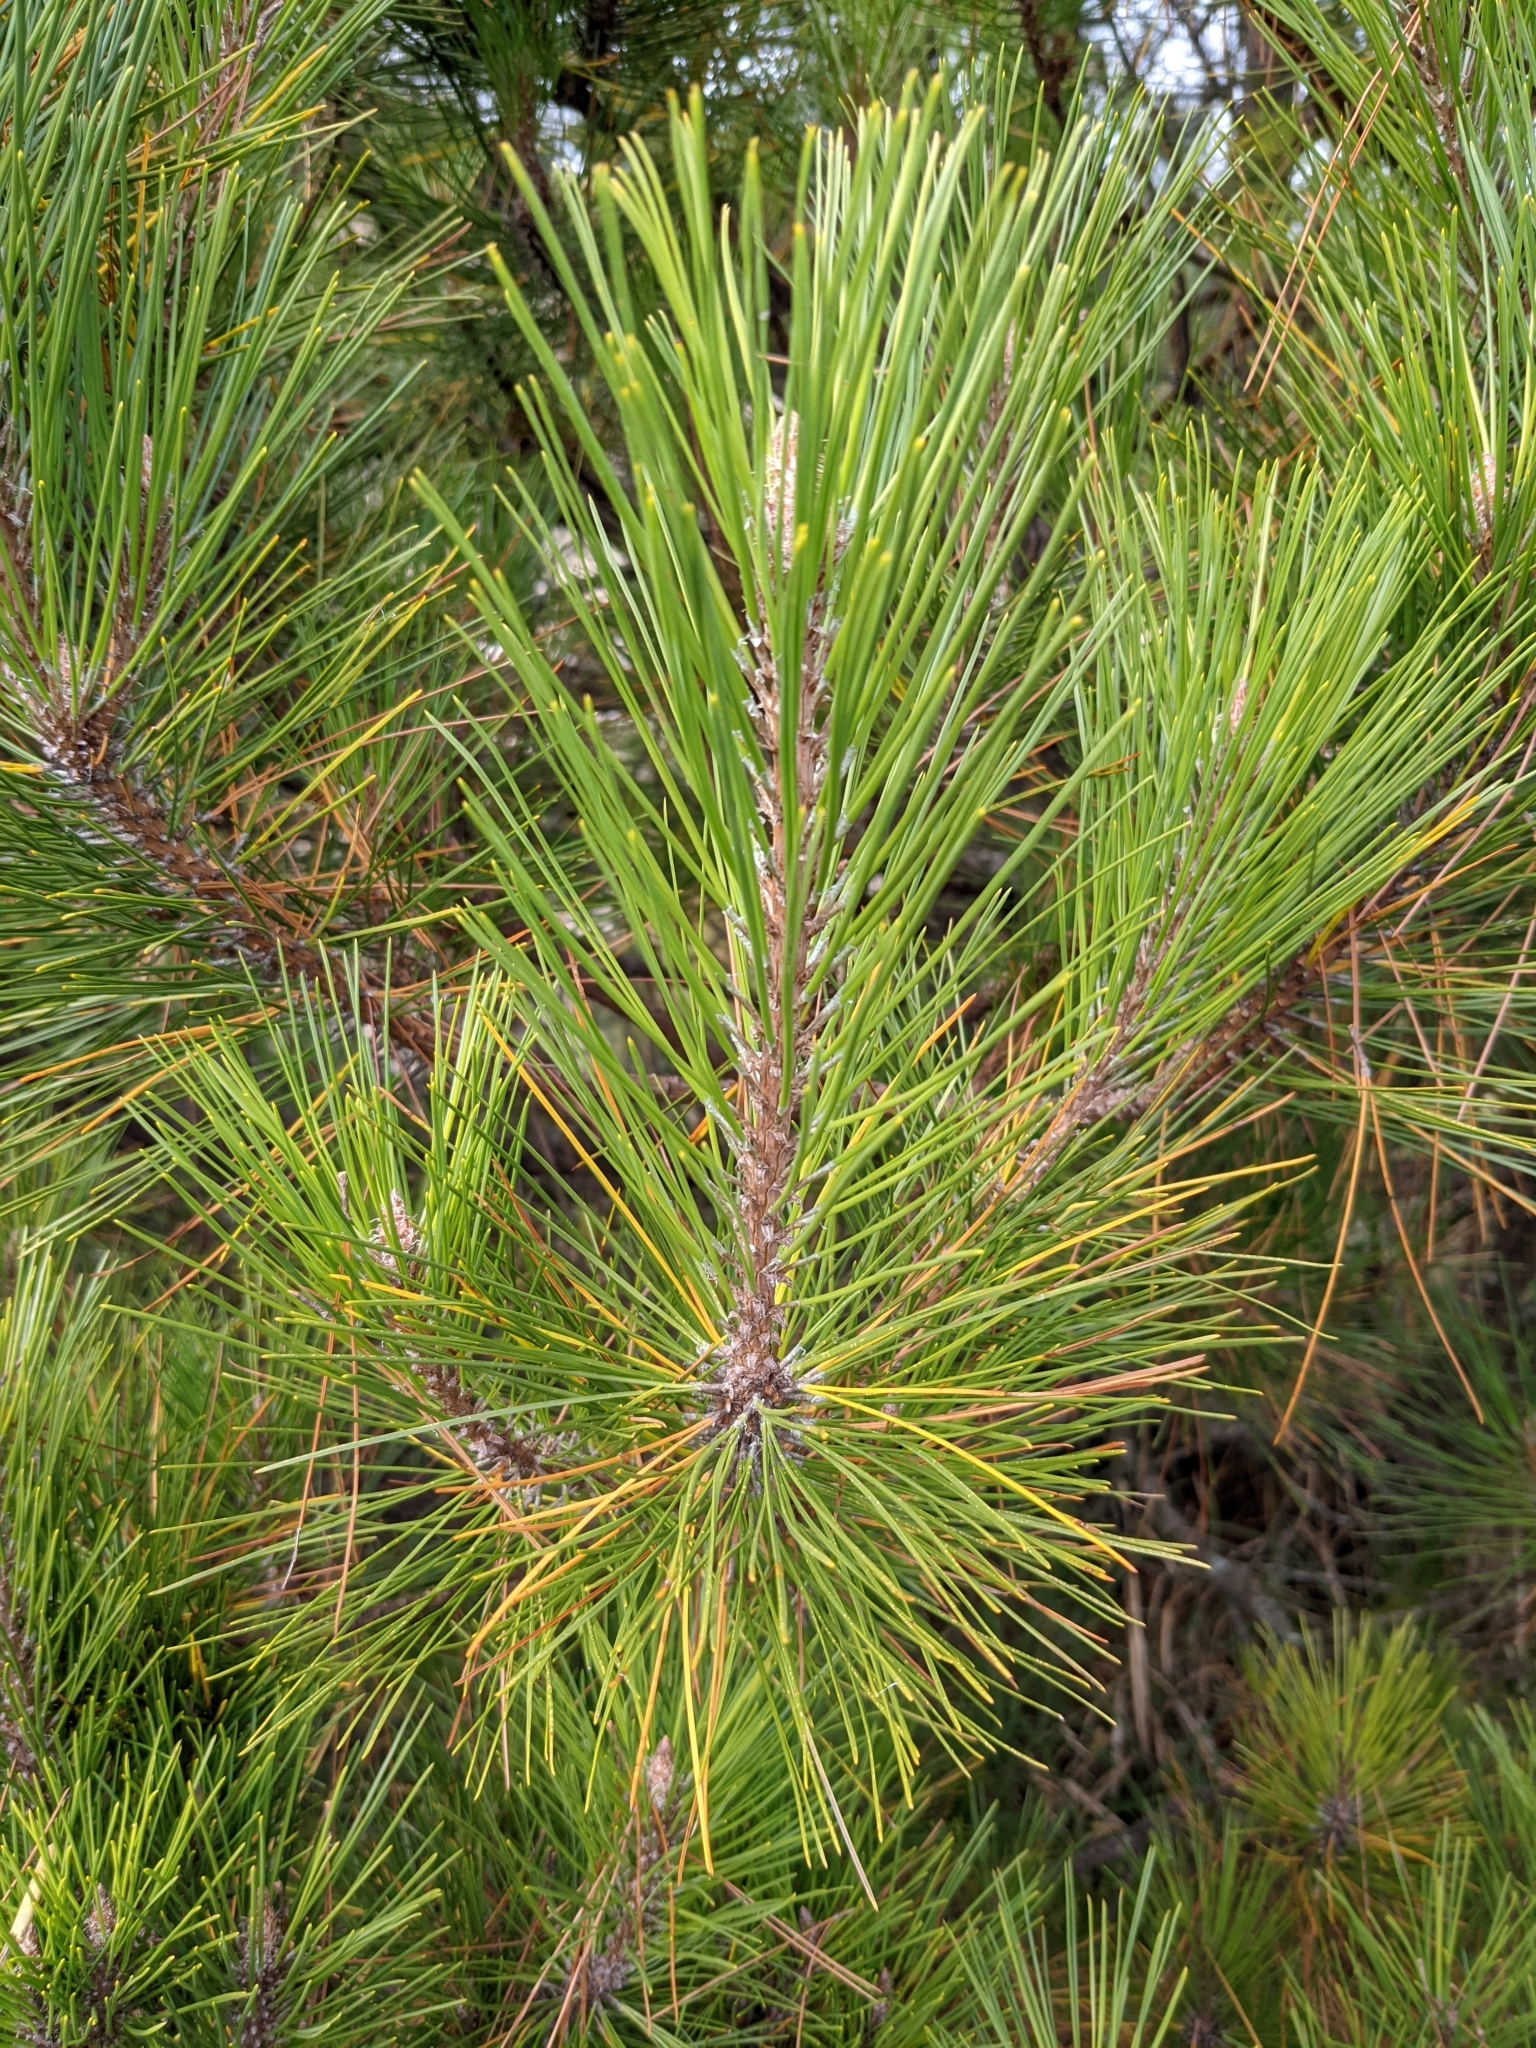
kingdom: Plantae
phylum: Tracheophyta
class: Pinopsida
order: Pinales
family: Pinaceae
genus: Pinus
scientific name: Pinus taiwanensis
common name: Formosa pine
